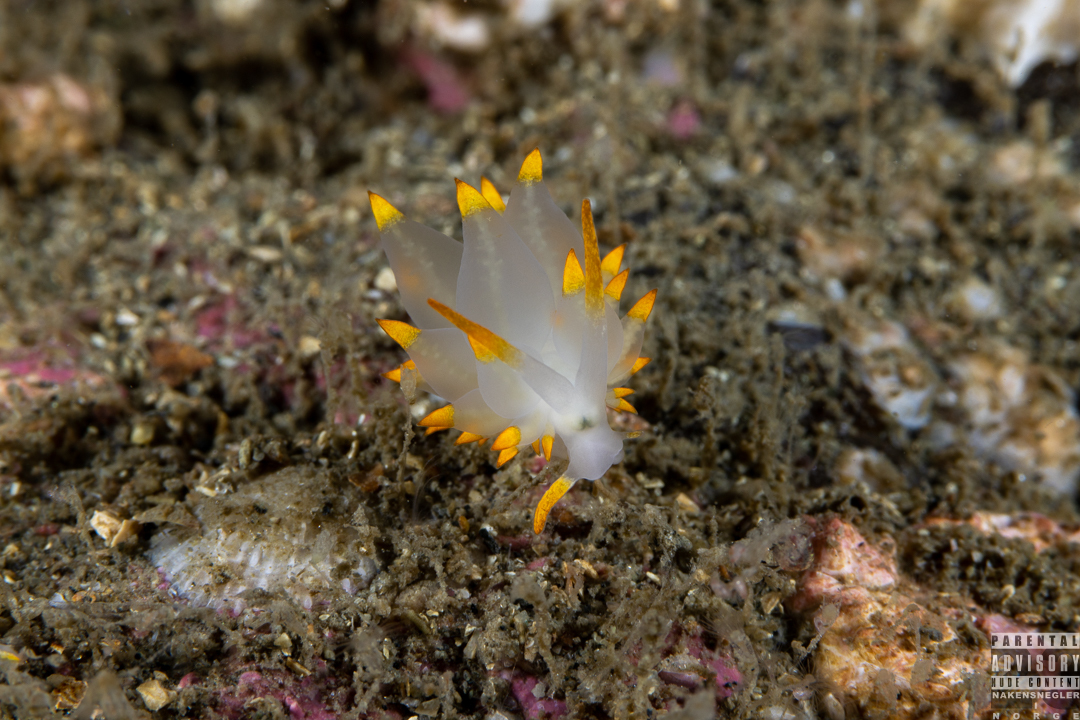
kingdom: Animalia
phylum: Mollusca
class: Gastropoda
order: Nudibranchia
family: Eubranchidae
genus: Amphorina
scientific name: Amphorina farrani
